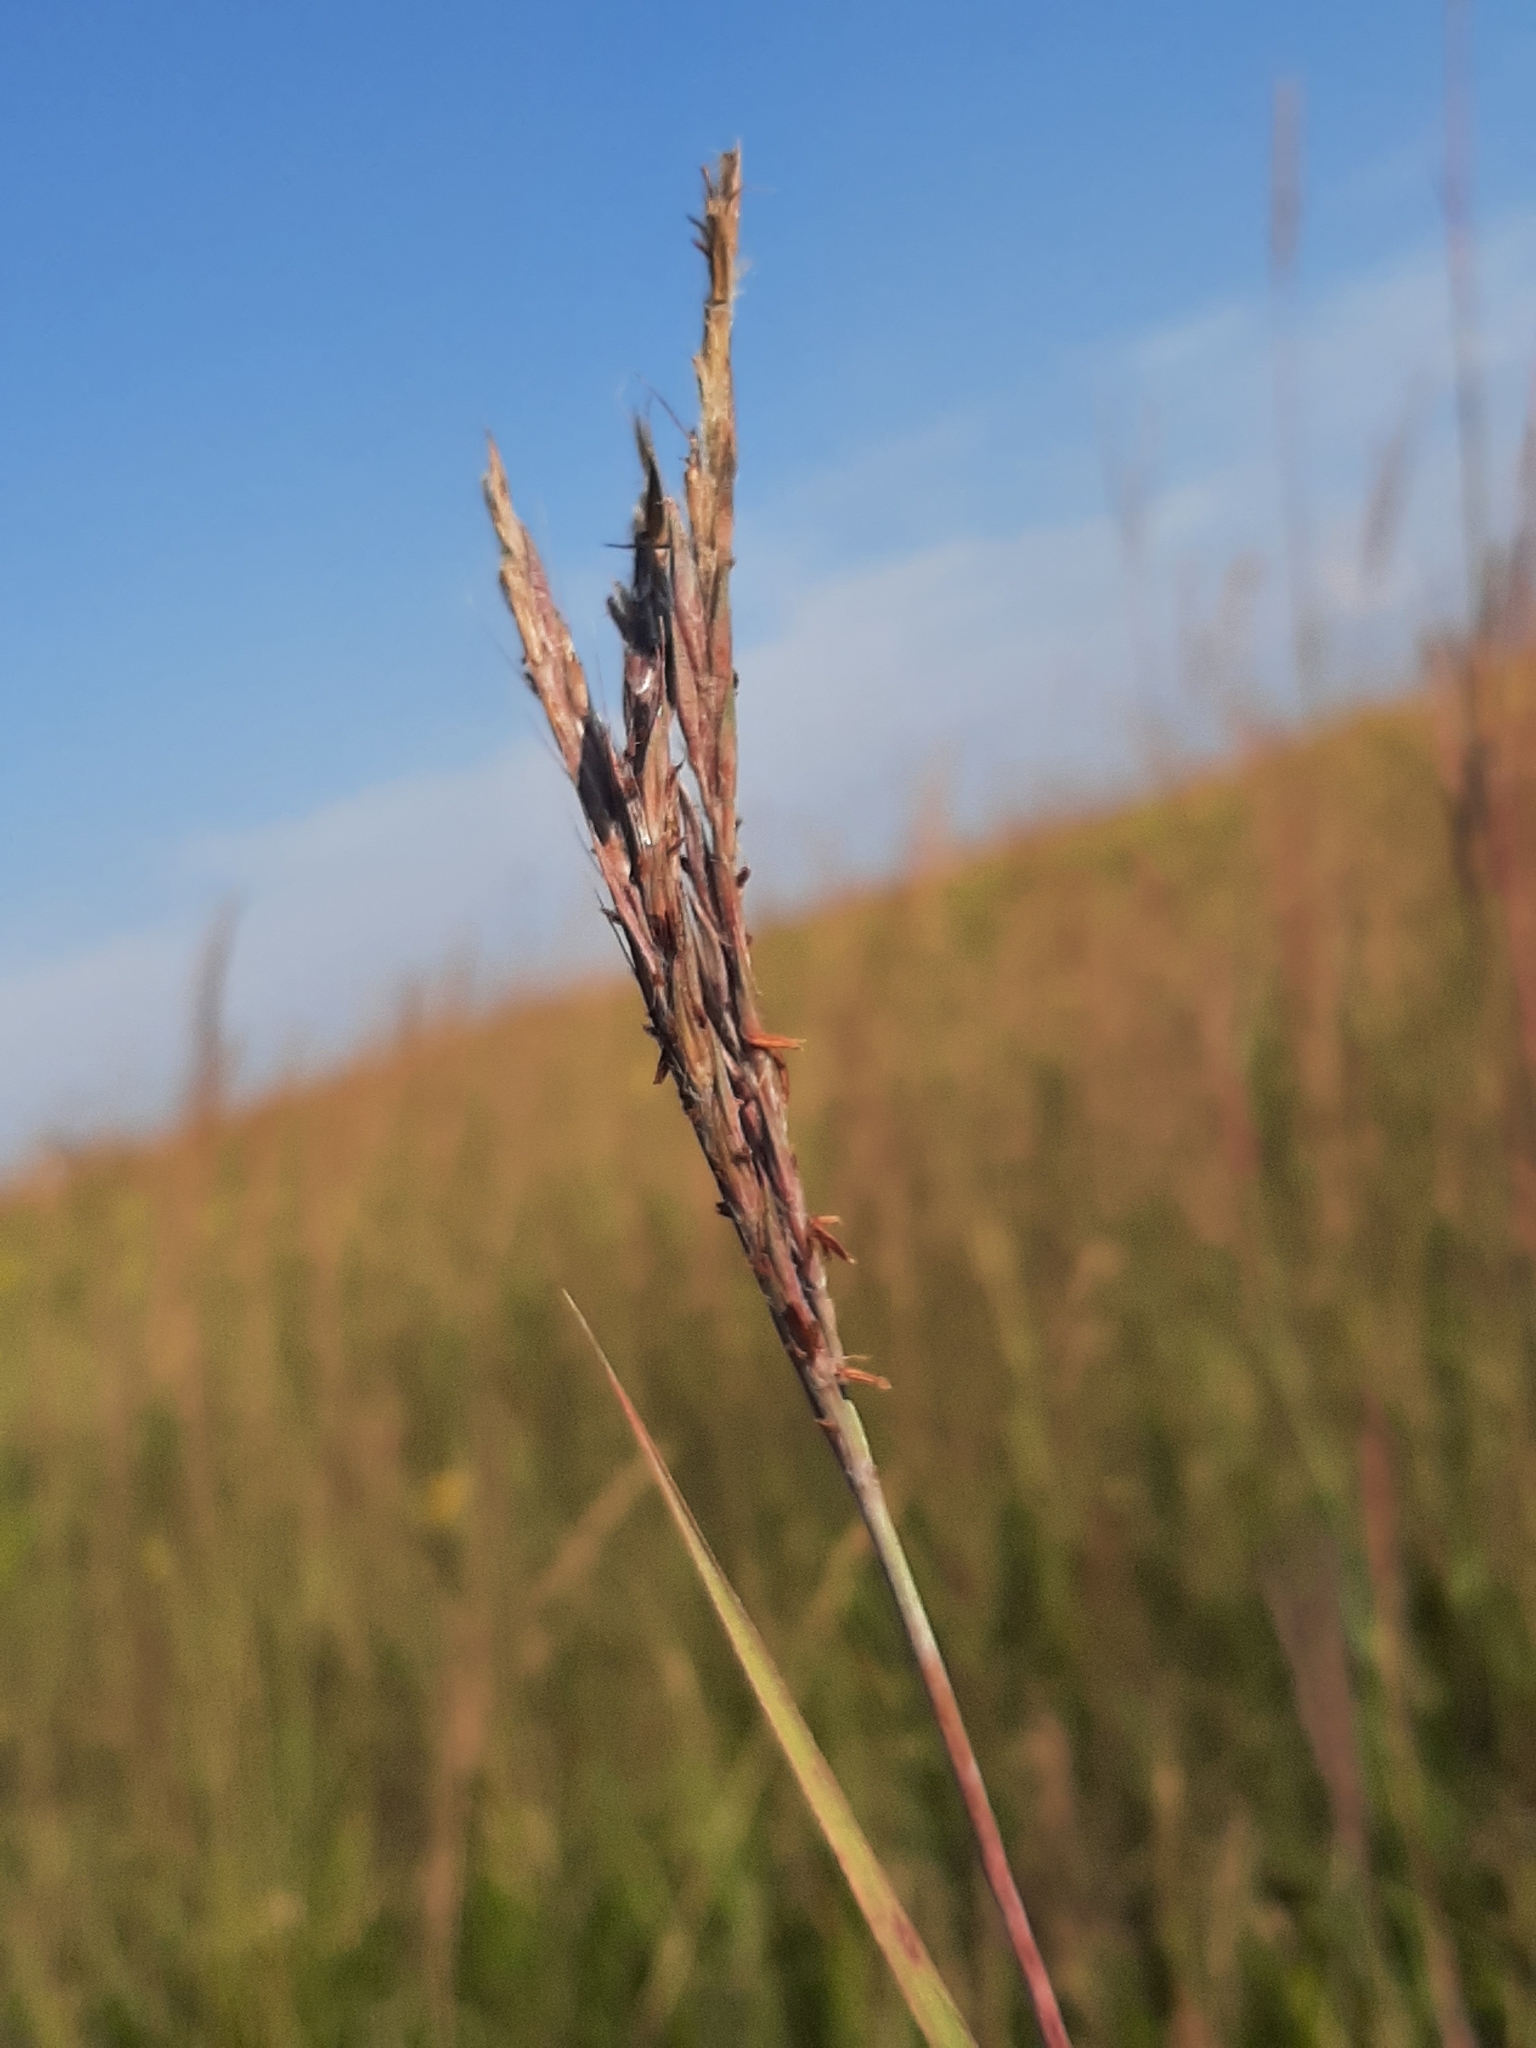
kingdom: Plantae
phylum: Tracheophyta
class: Liliopsida
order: Poales
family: Poaceae
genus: Andropogon
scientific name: Andropogon gerardi
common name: Big bluestem
